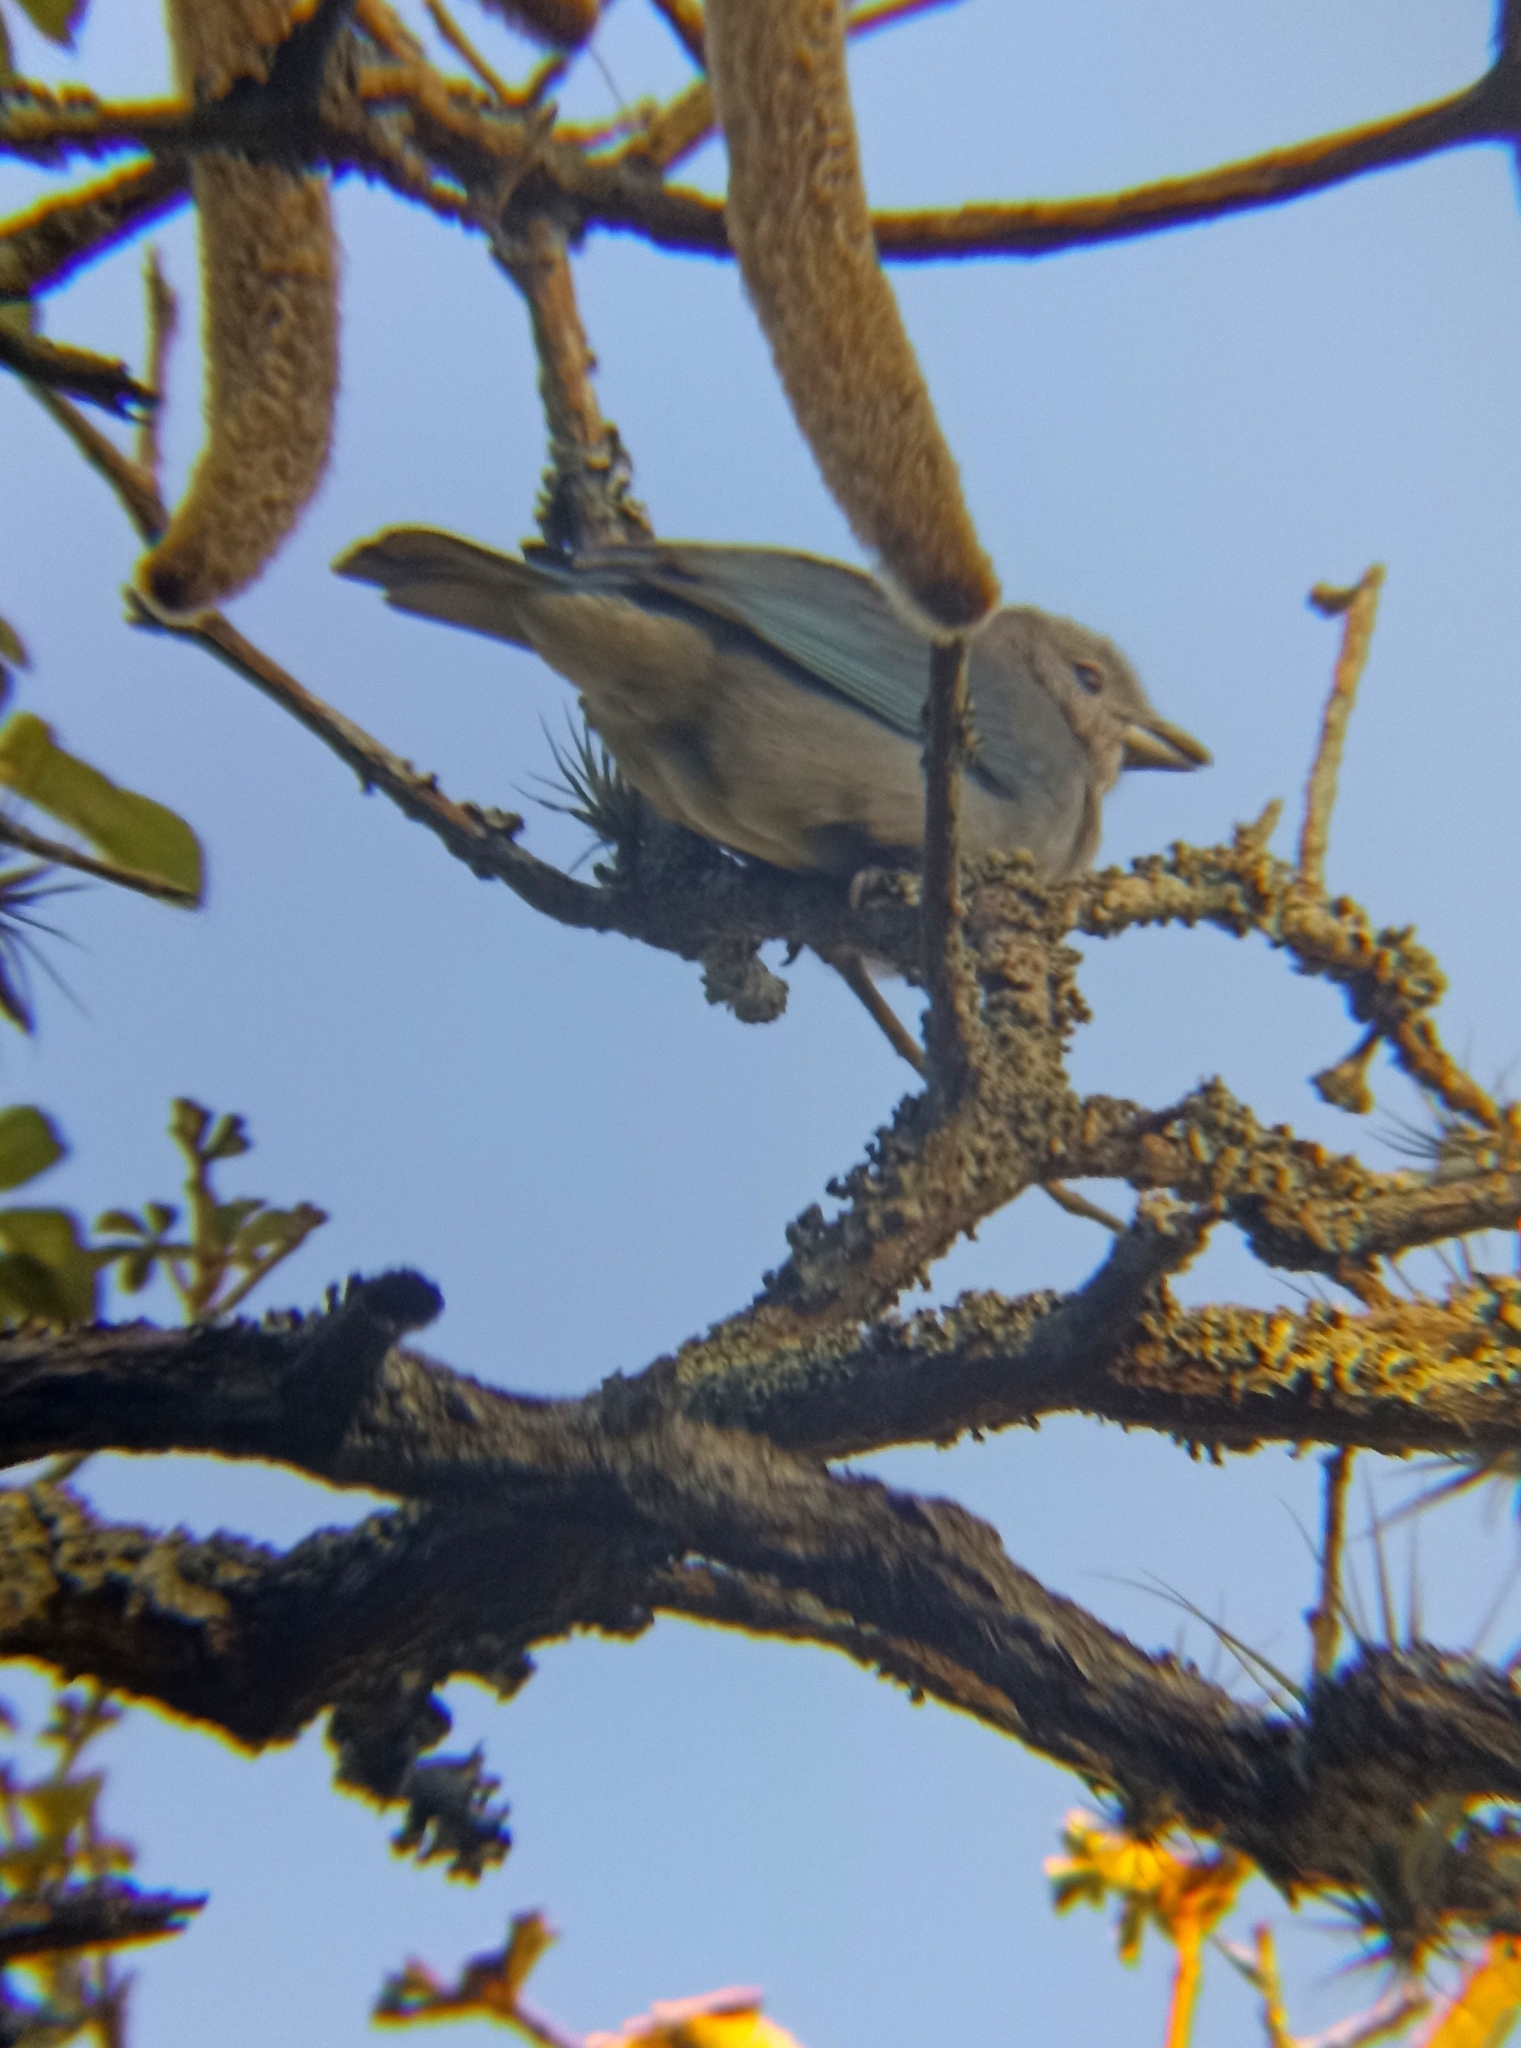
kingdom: Animalia
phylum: Chordata
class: Aves
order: Passeriformes
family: Thraupidae
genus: Thraupis
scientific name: Thraupis sayaca
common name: Sayaca tanager
